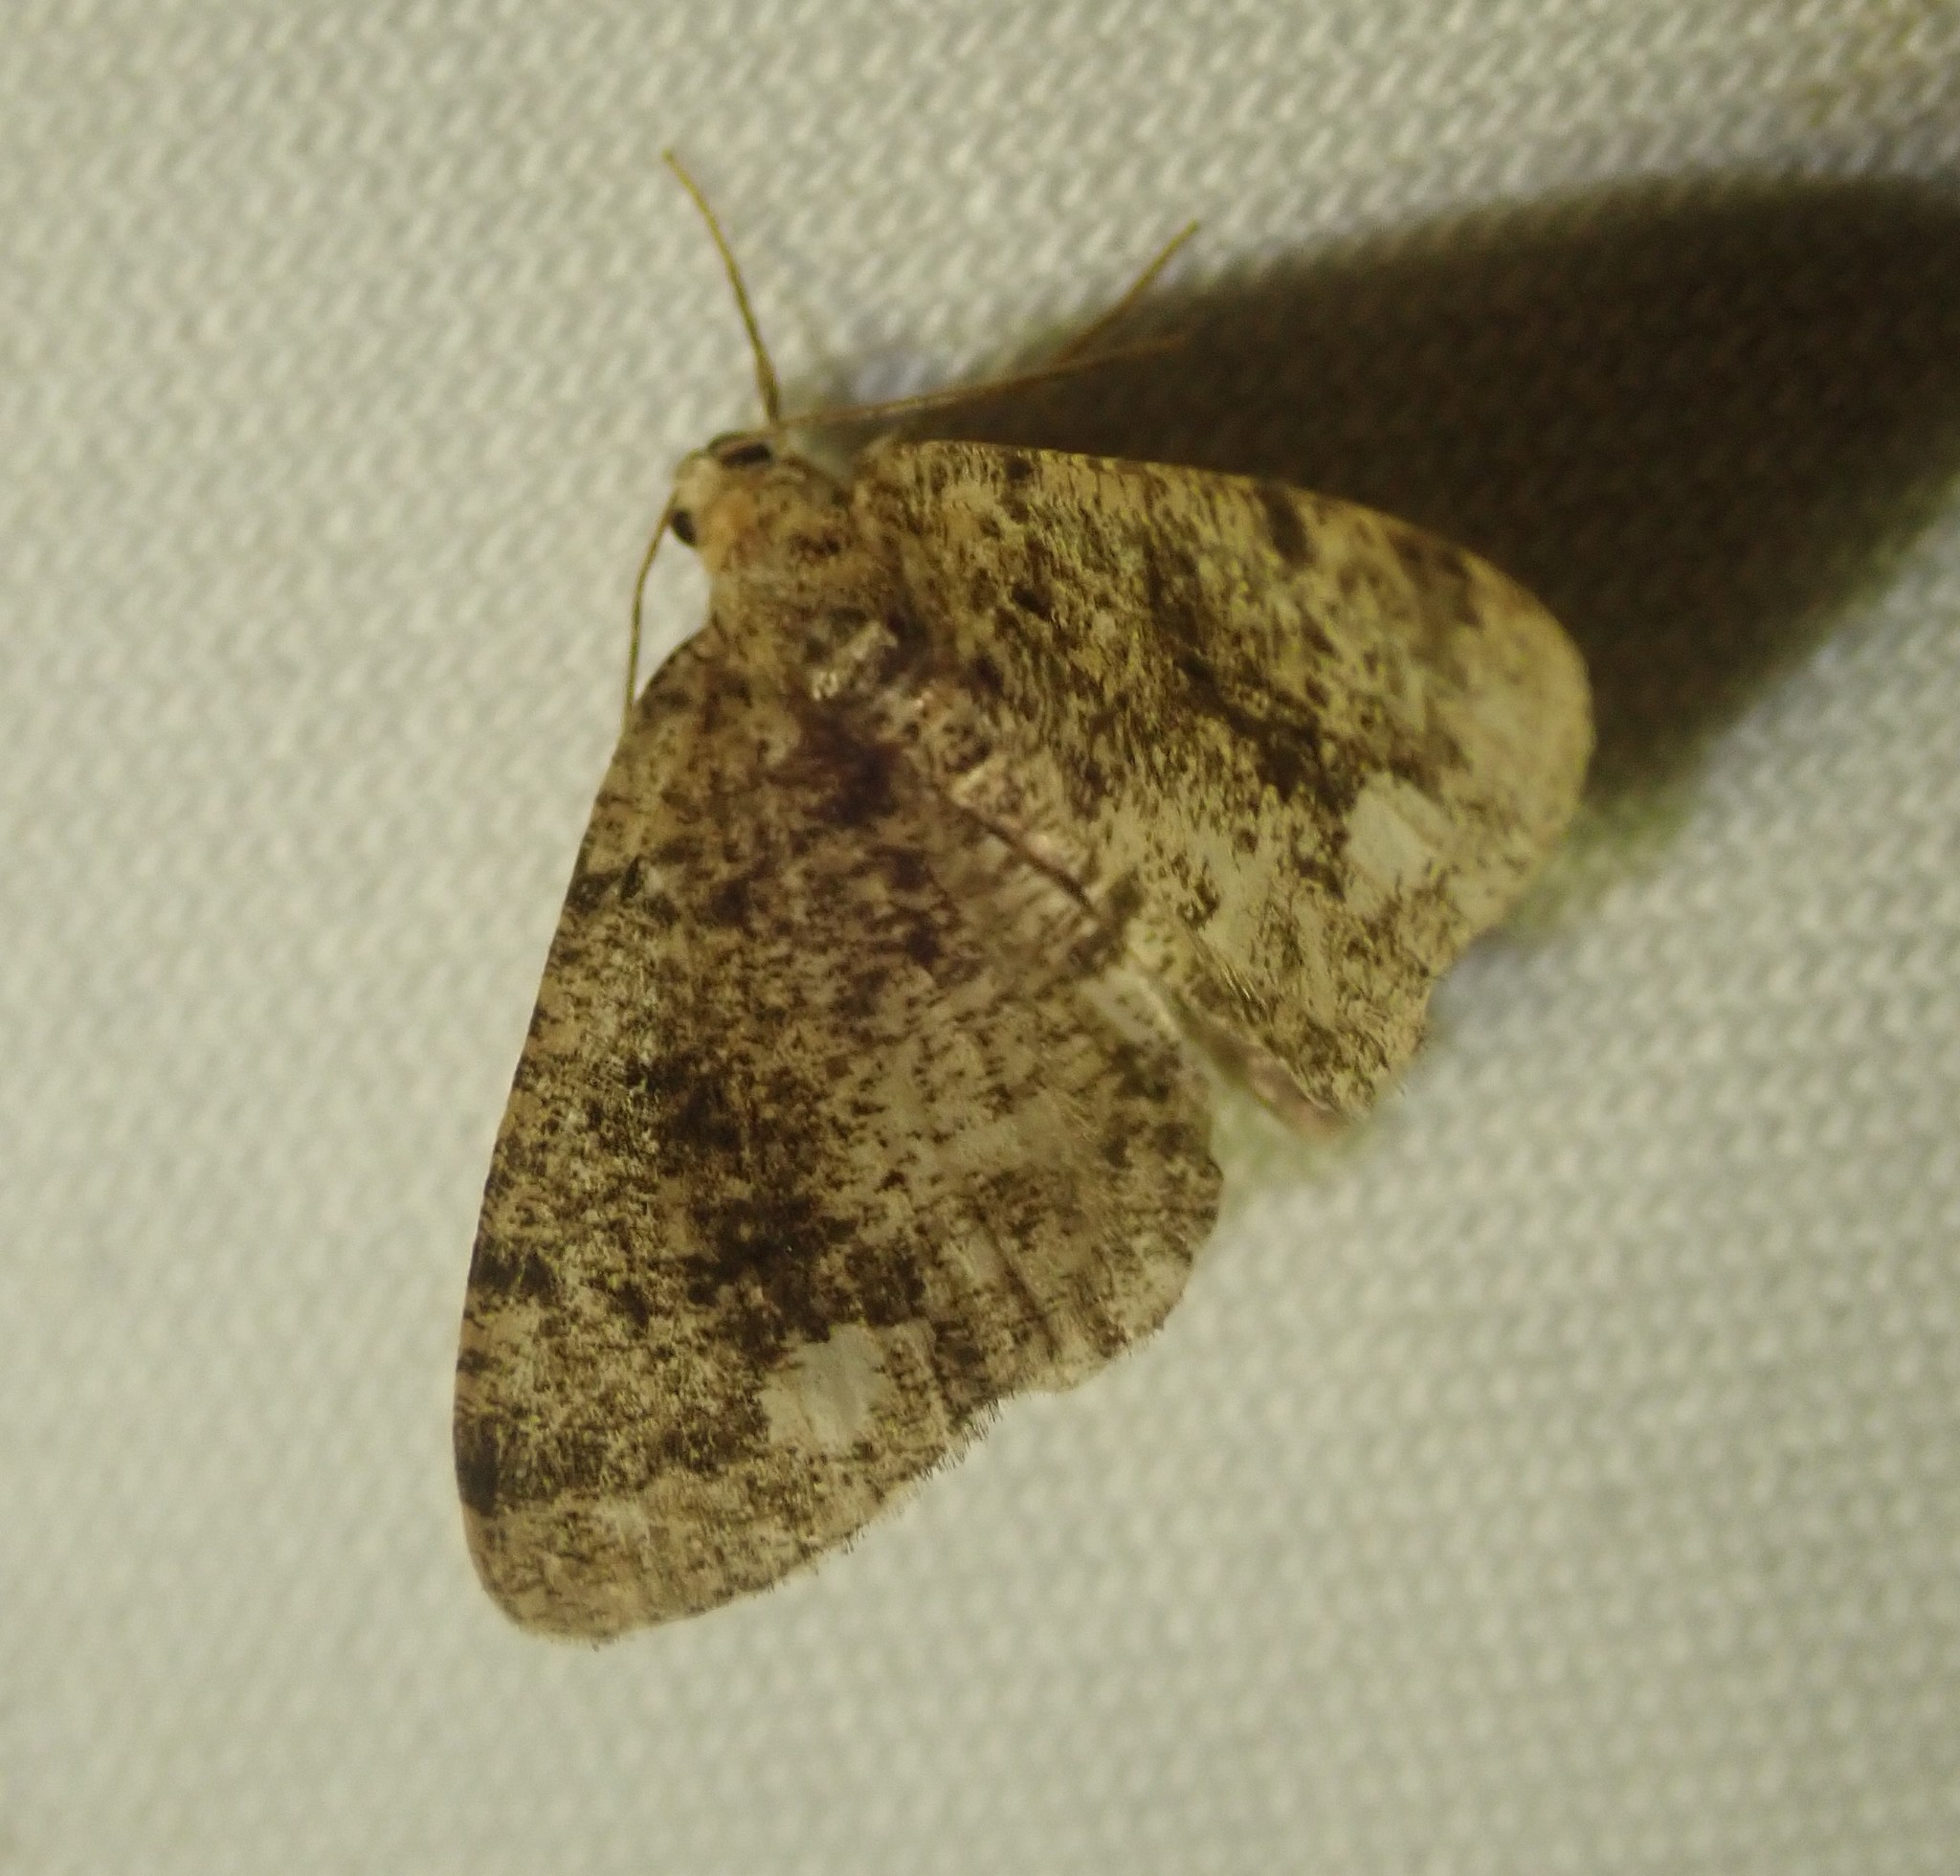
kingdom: Animalia
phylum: Arthropoda
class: Insecta
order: Lepidoptera
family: Geometridae
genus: Parectropis
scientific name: Parectropis similaria
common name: Brindled white-spot
